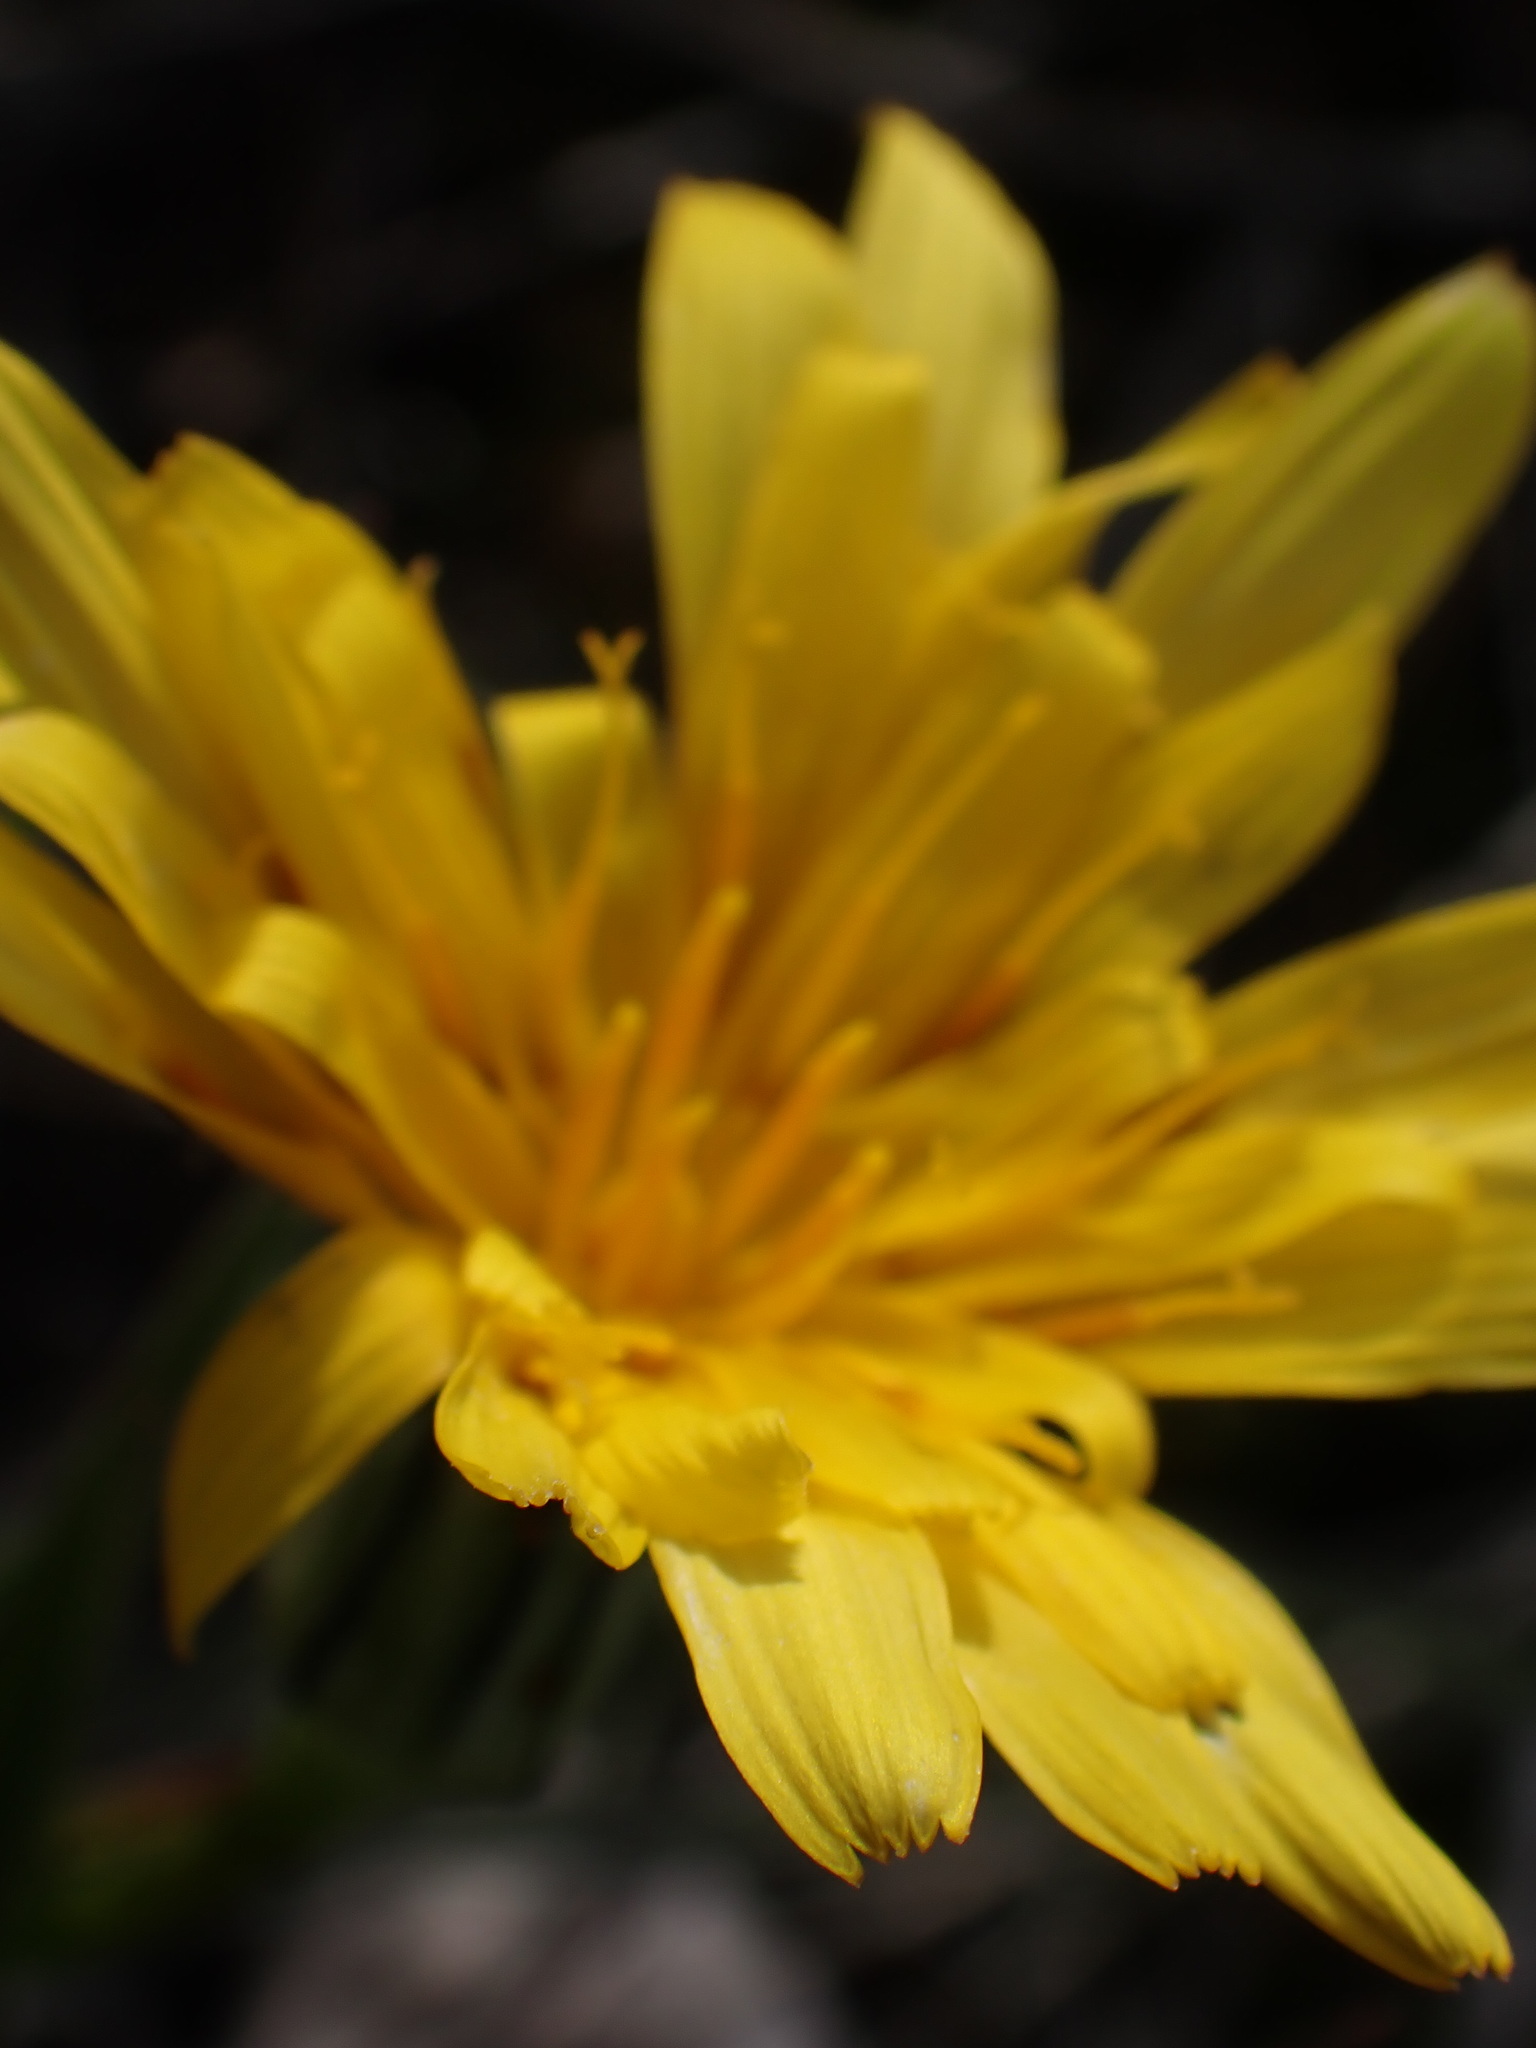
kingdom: Plantae
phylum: Tracheophyta
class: Magnoliopsida
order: Asterales
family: Asteraceae
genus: Microseris
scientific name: Microseris troximoides
